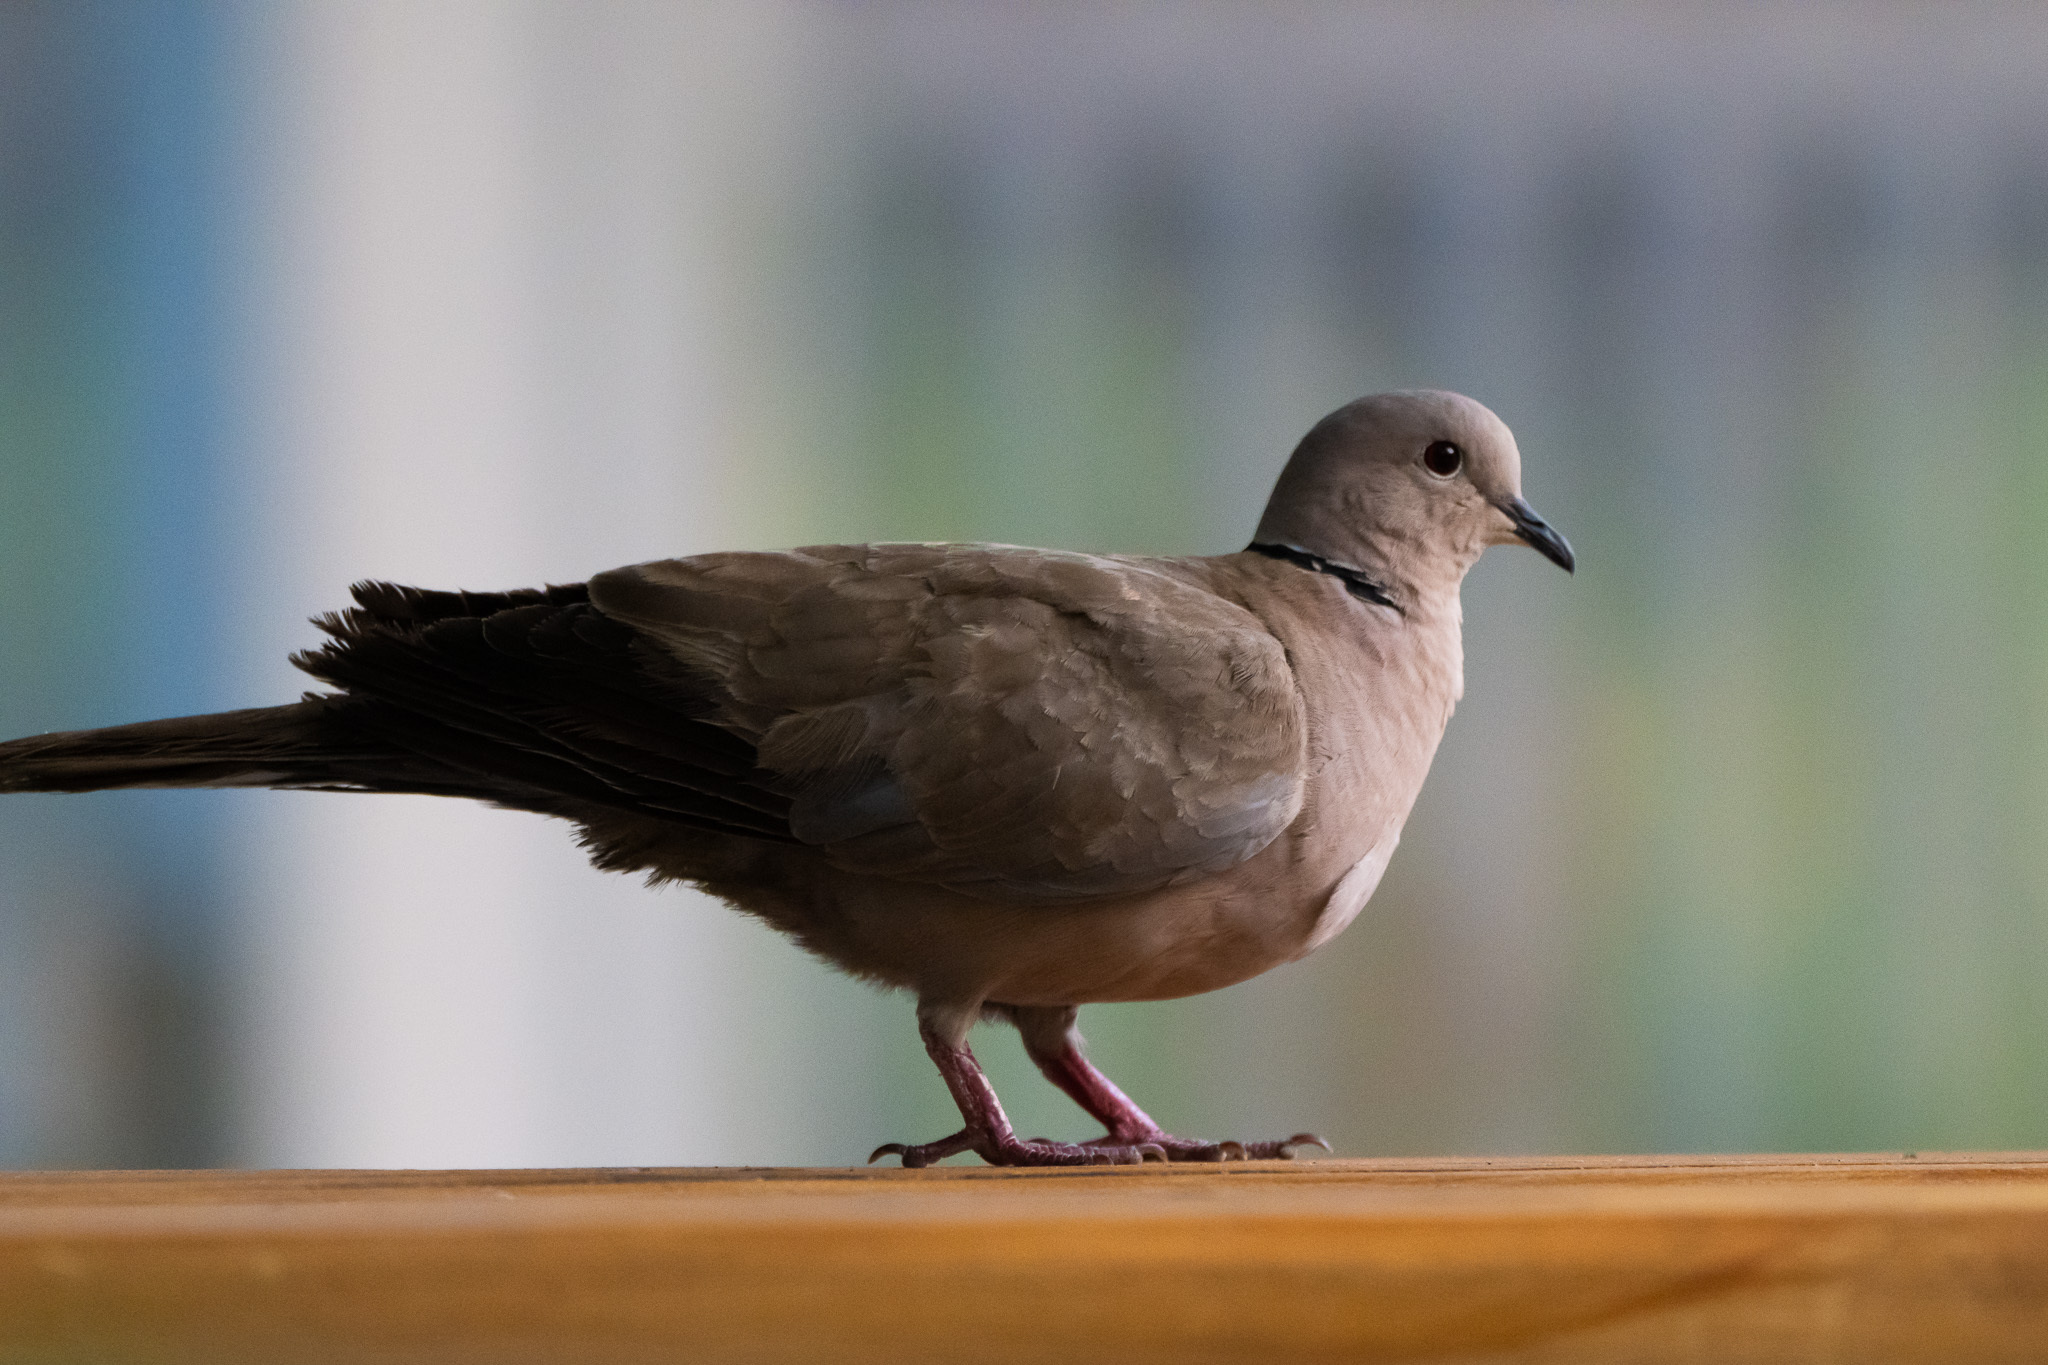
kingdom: Animalia
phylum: Chordata
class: Aves
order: Columbiformes
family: Columbidae
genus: Streptopelia
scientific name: Streptopelia decaocto
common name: Eurasian collared dove
